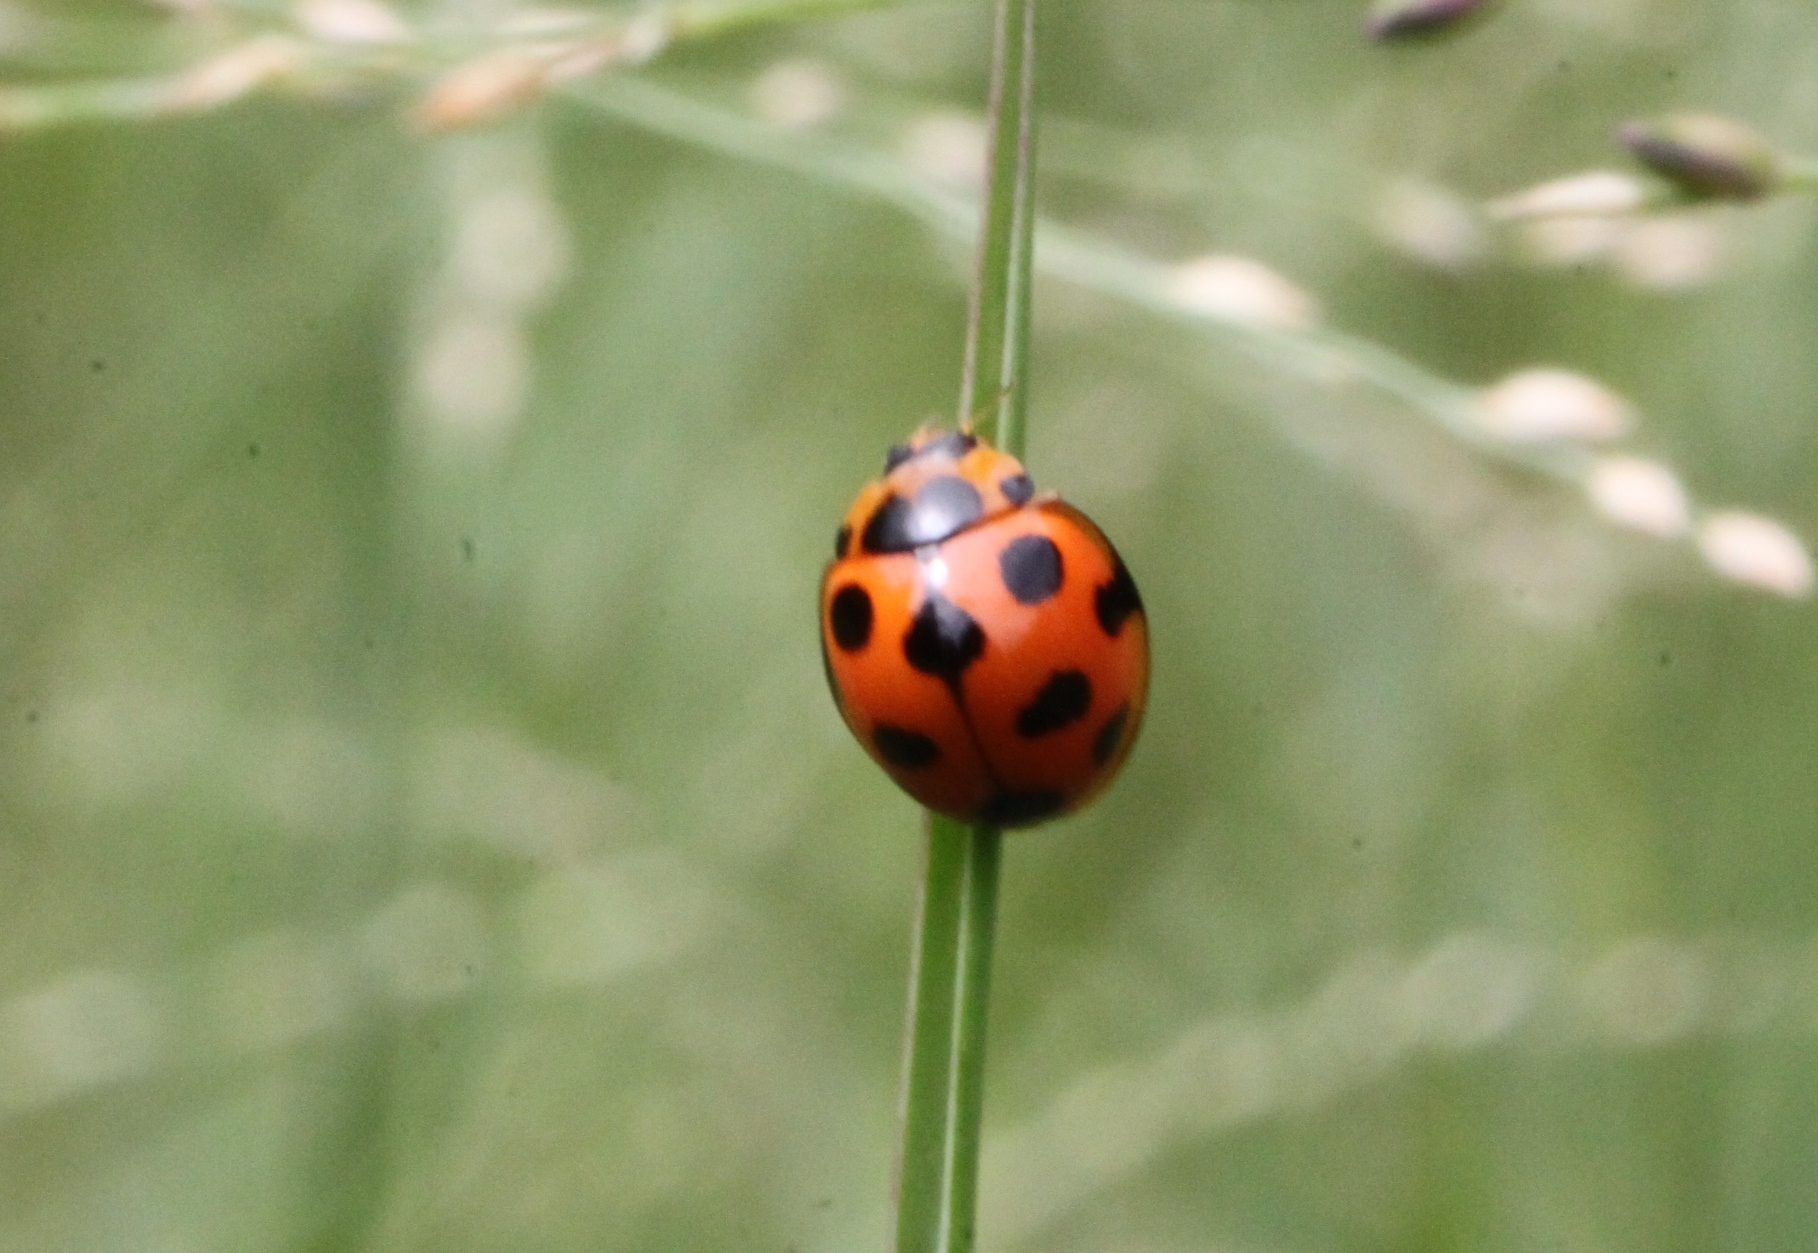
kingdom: Animalia
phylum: Arthropoda
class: Insecta
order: Coleoptera
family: Coccinellidae
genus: Coelophora
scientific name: Coelophora bissellata
